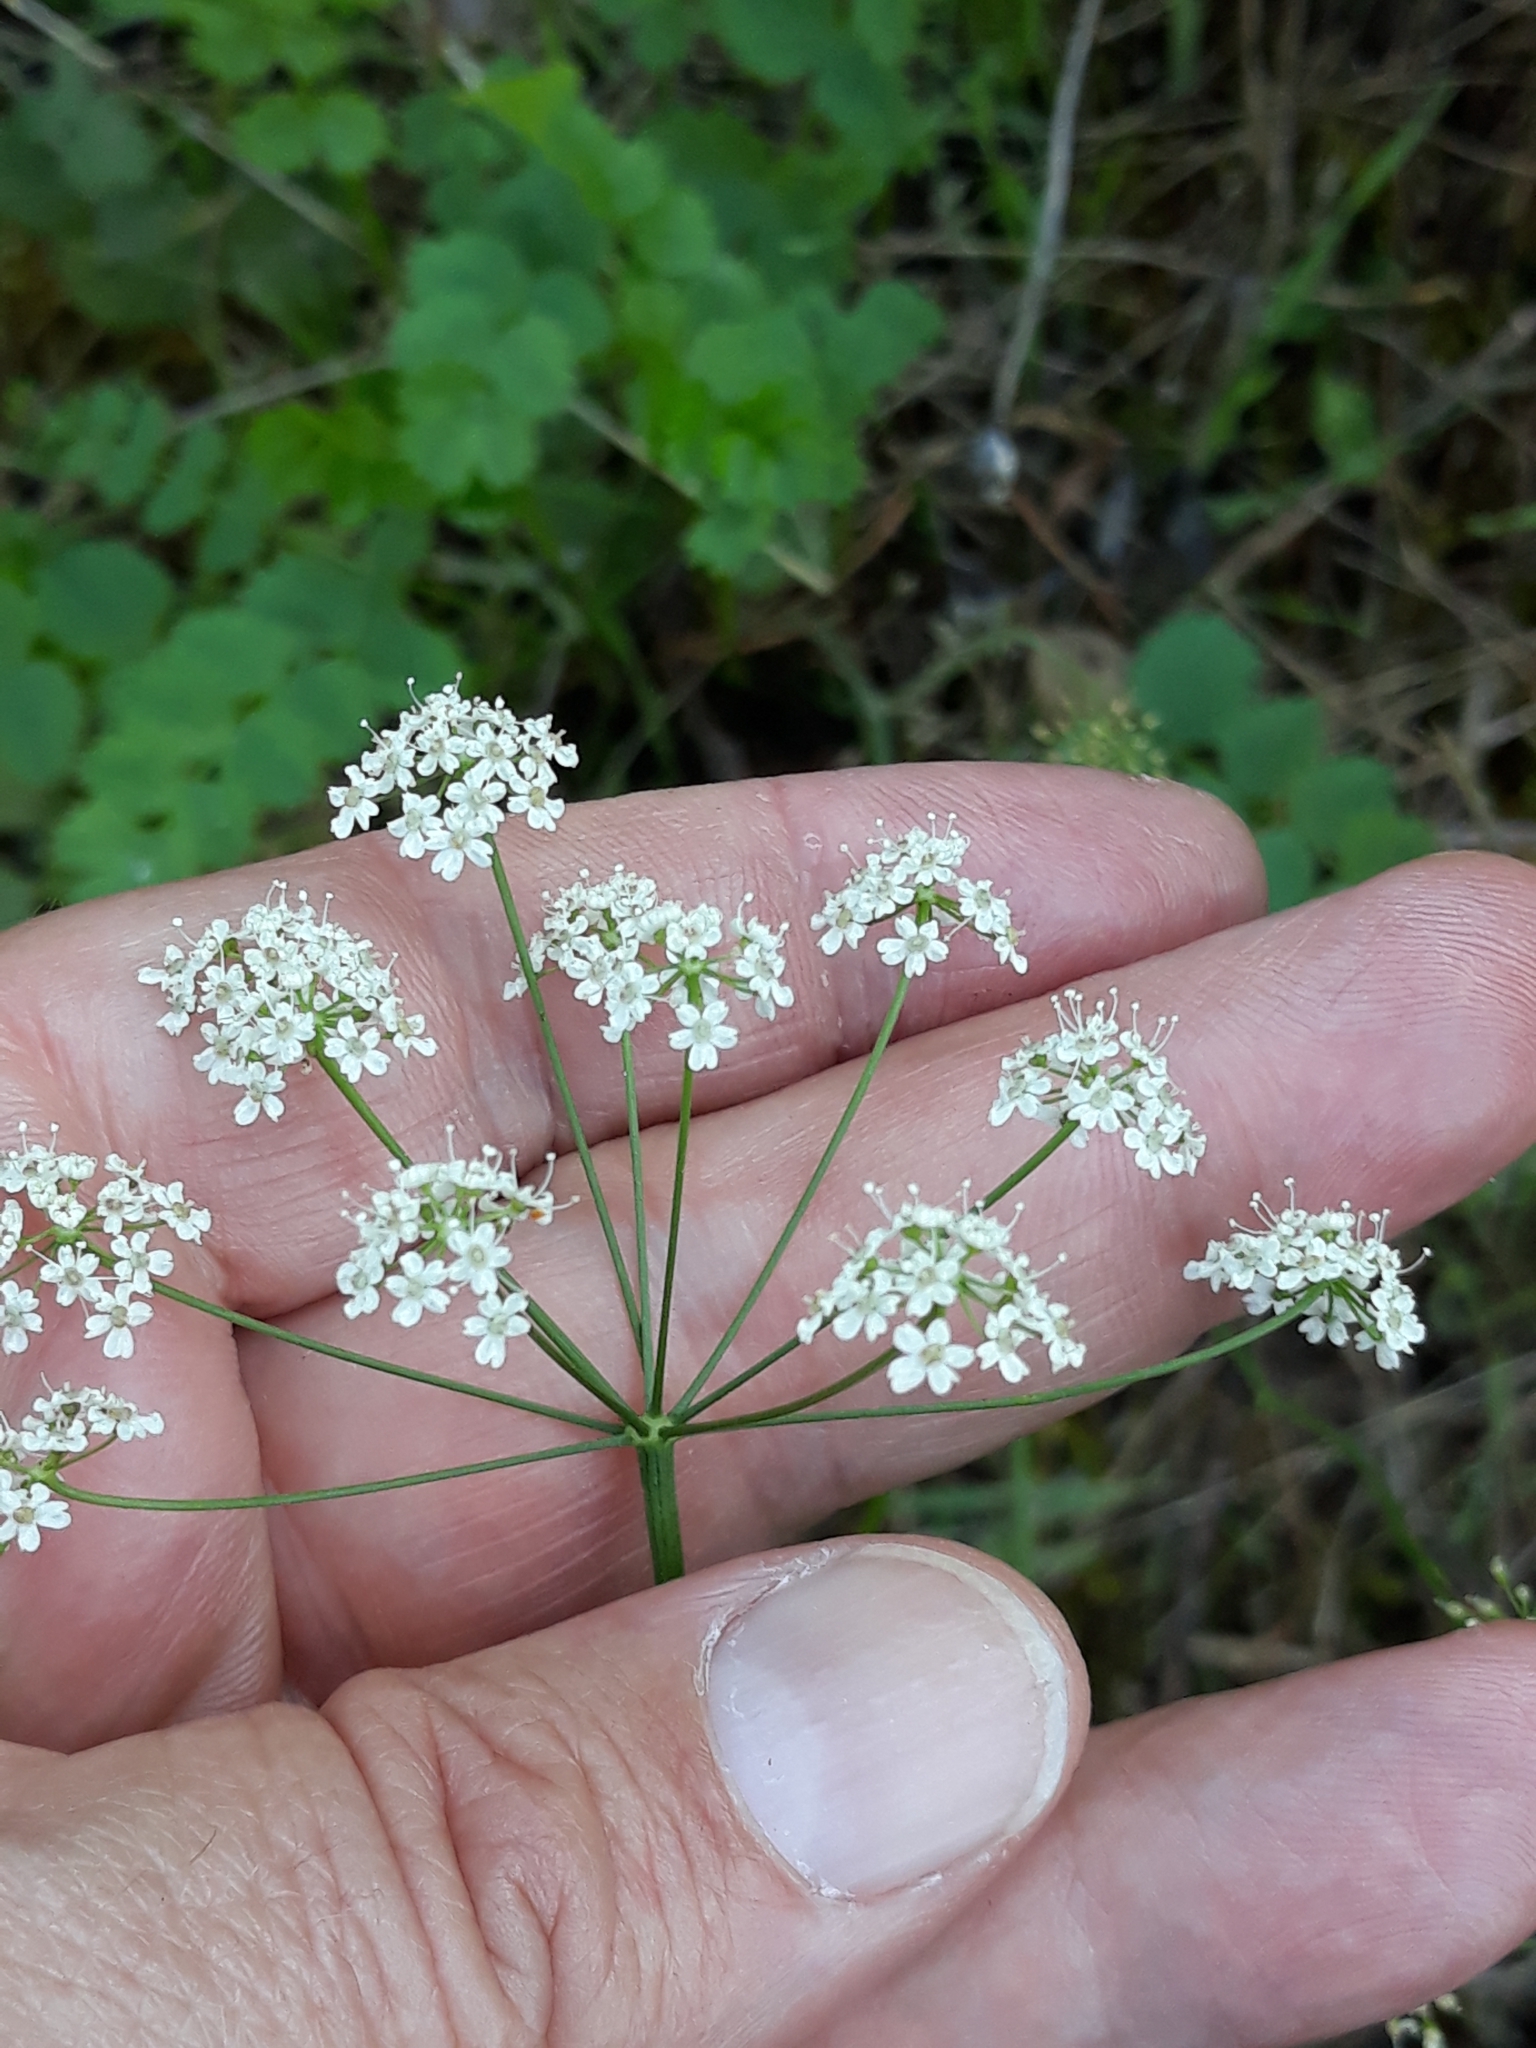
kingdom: Plantae
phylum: Tracheophyta
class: Magnoliopsida
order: Apiales
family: Apiaceae
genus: Pimpinella
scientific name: Pimpinella saxifraga
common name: Burnet-saxifrage
